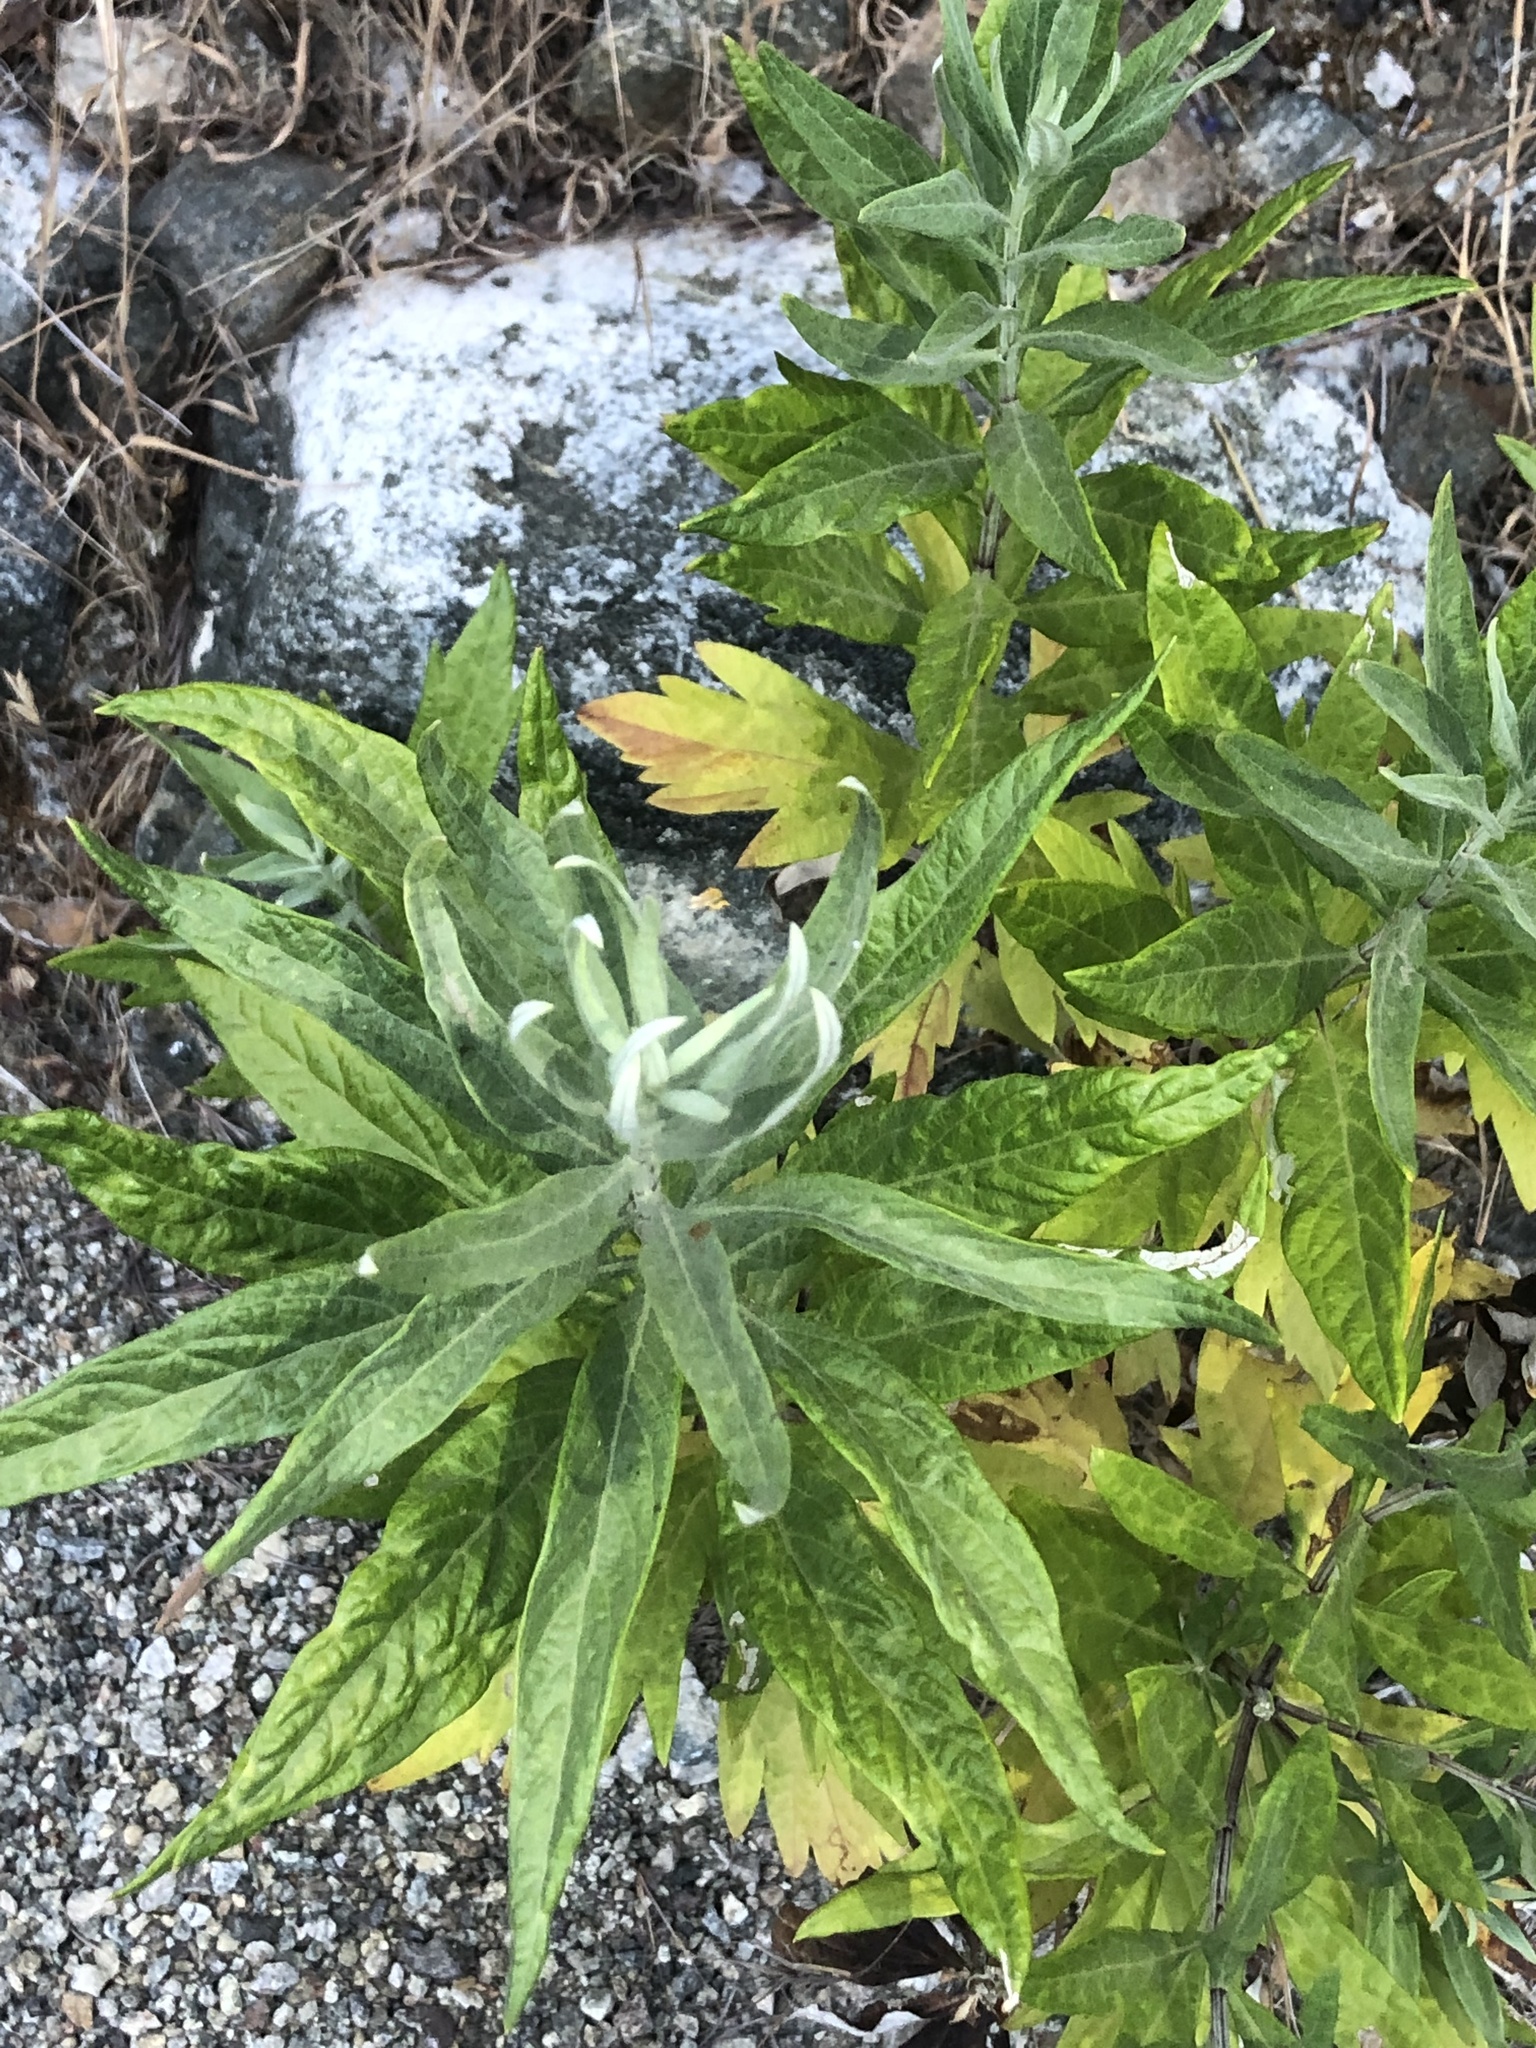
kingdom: Plantae
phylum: Tracheophyta
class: Magnoliopsida
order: Asterales
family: Asteraceae
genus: Artemisia
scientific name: Artemisia douglasiana
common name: Northwest mugwort
